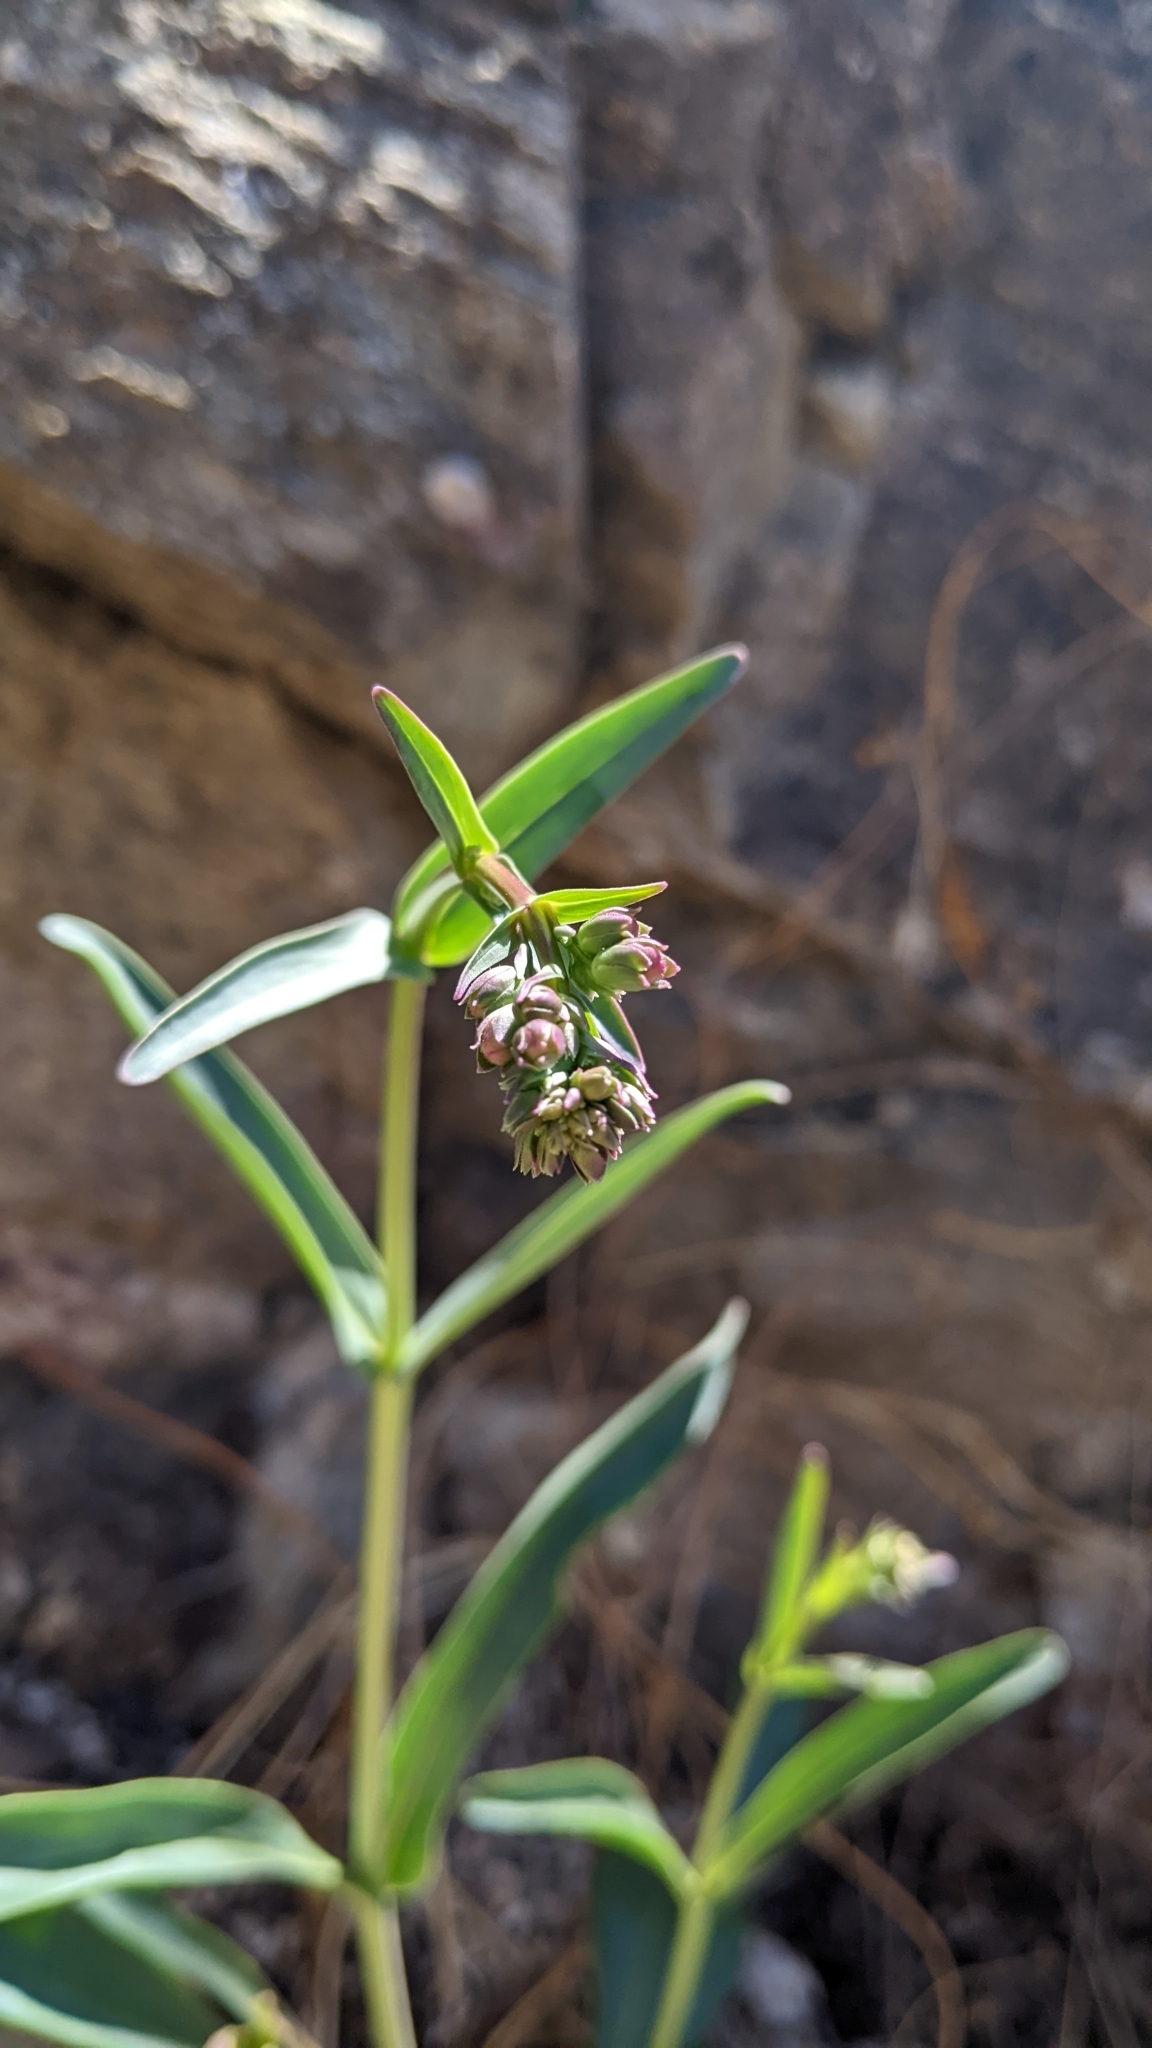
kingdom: Plantae
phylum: Tracheophyta
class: Magnoliopsida
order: Lamiales
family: Plantaginaceae
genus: Penstemon
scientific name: Penstemon parryi
